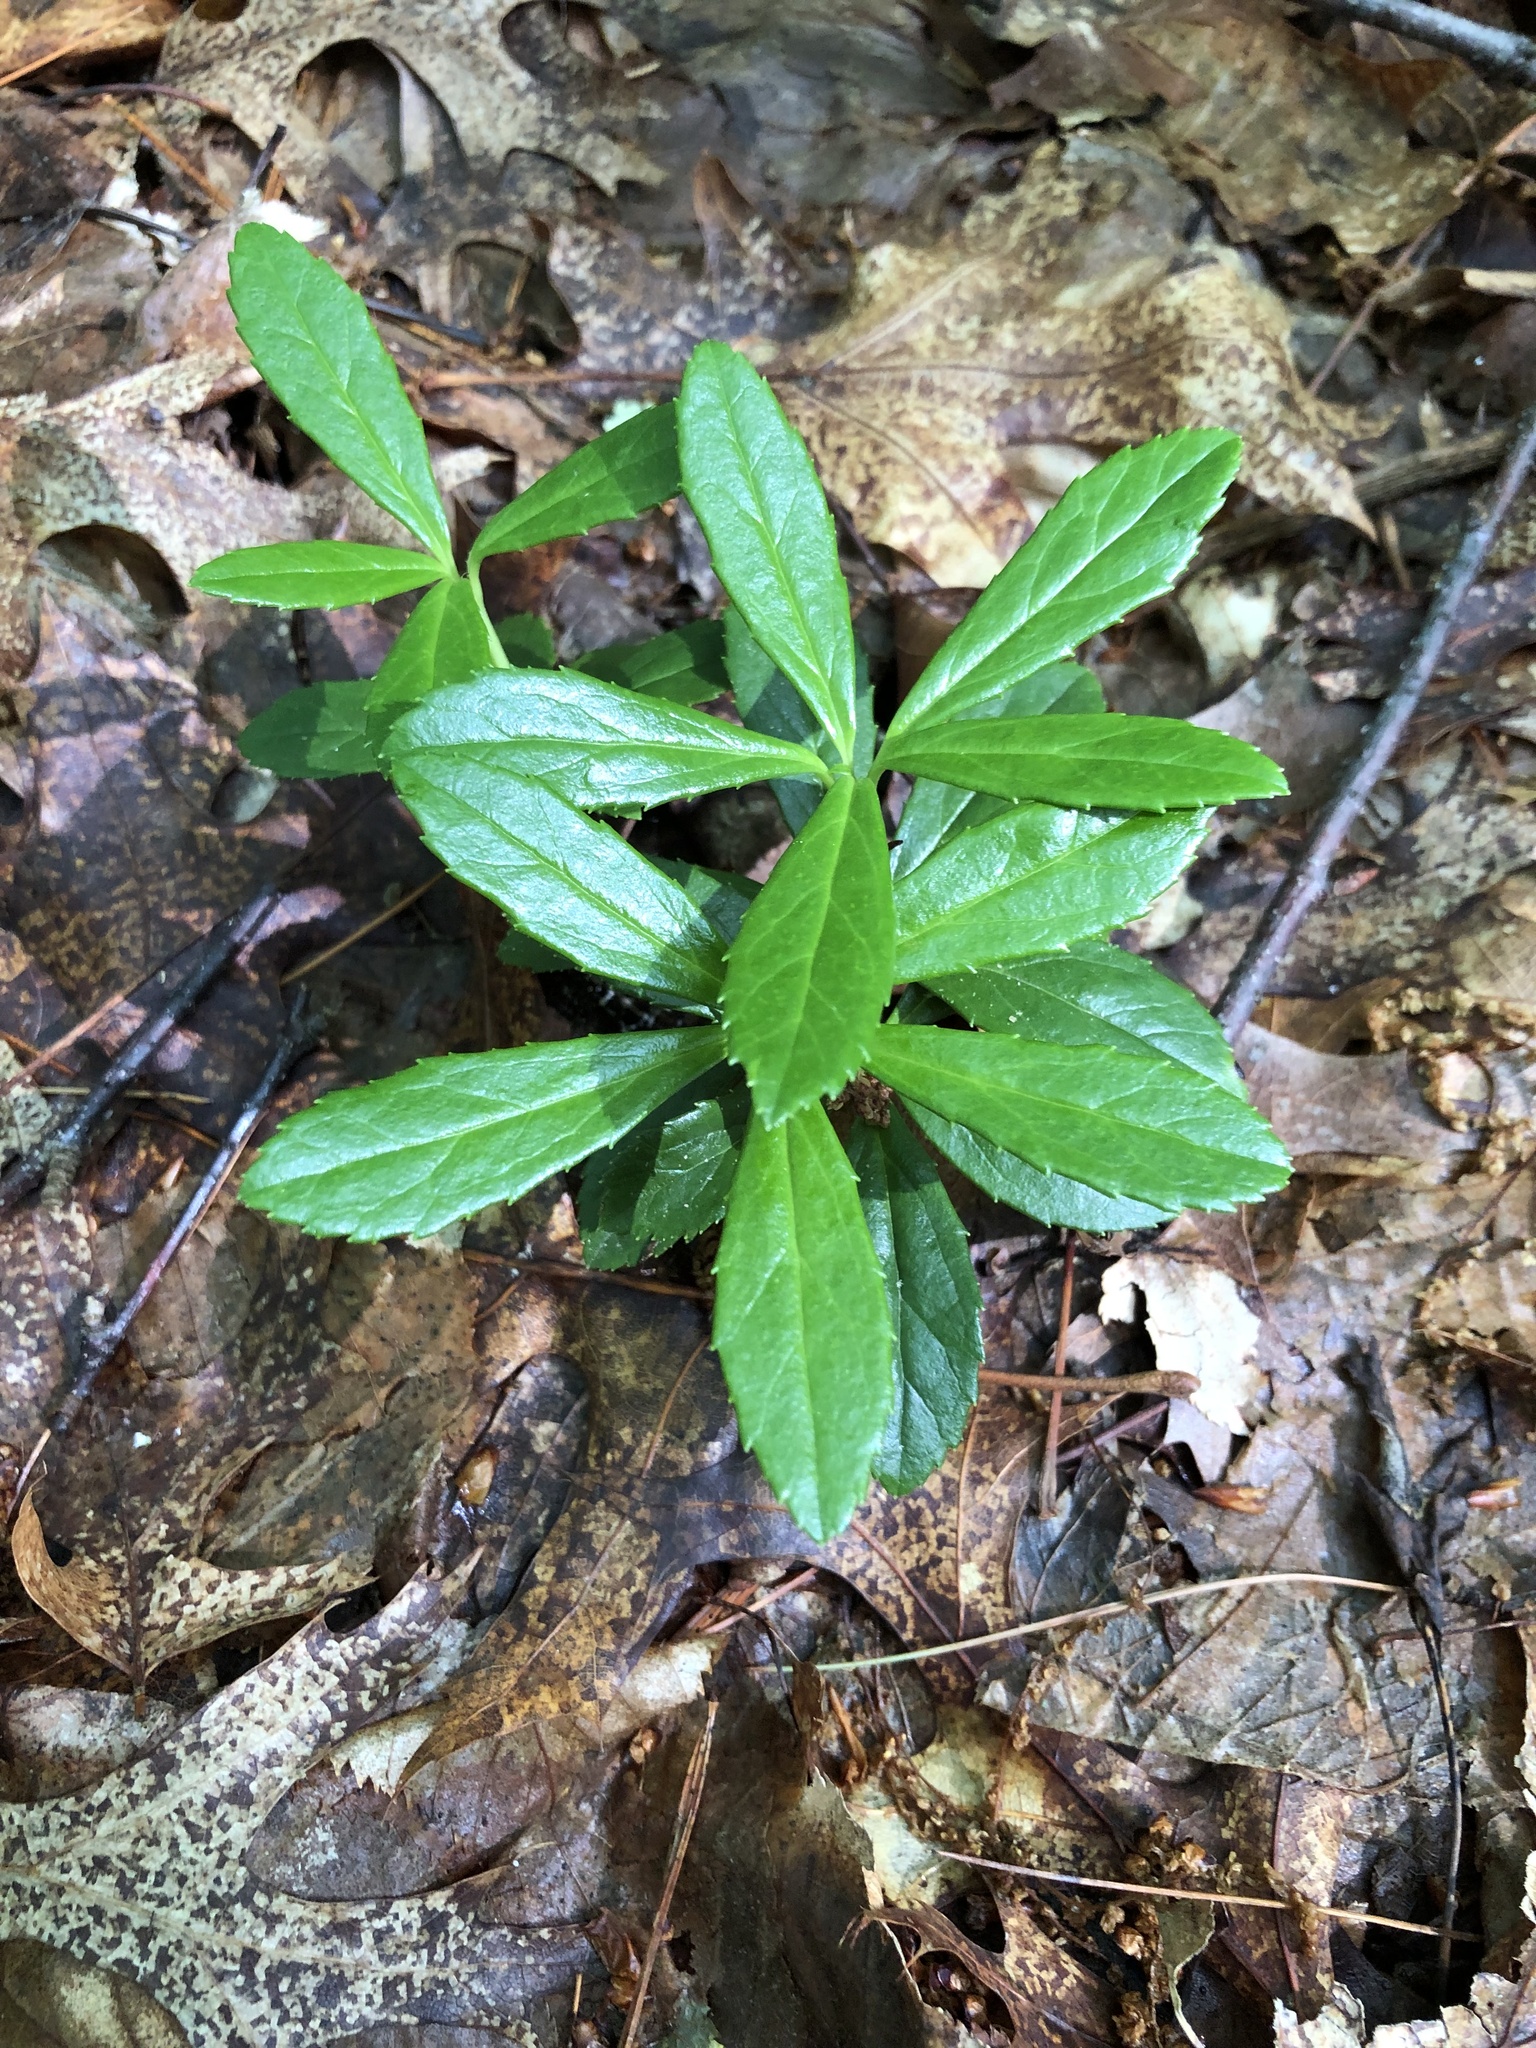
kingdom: Plantae
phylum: Tracheophyta
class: Magnoliopsida
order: Ericales
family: Ericaceae
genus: Chimaphila
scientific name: Chimaphila umbellata
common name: Pipsissewa
